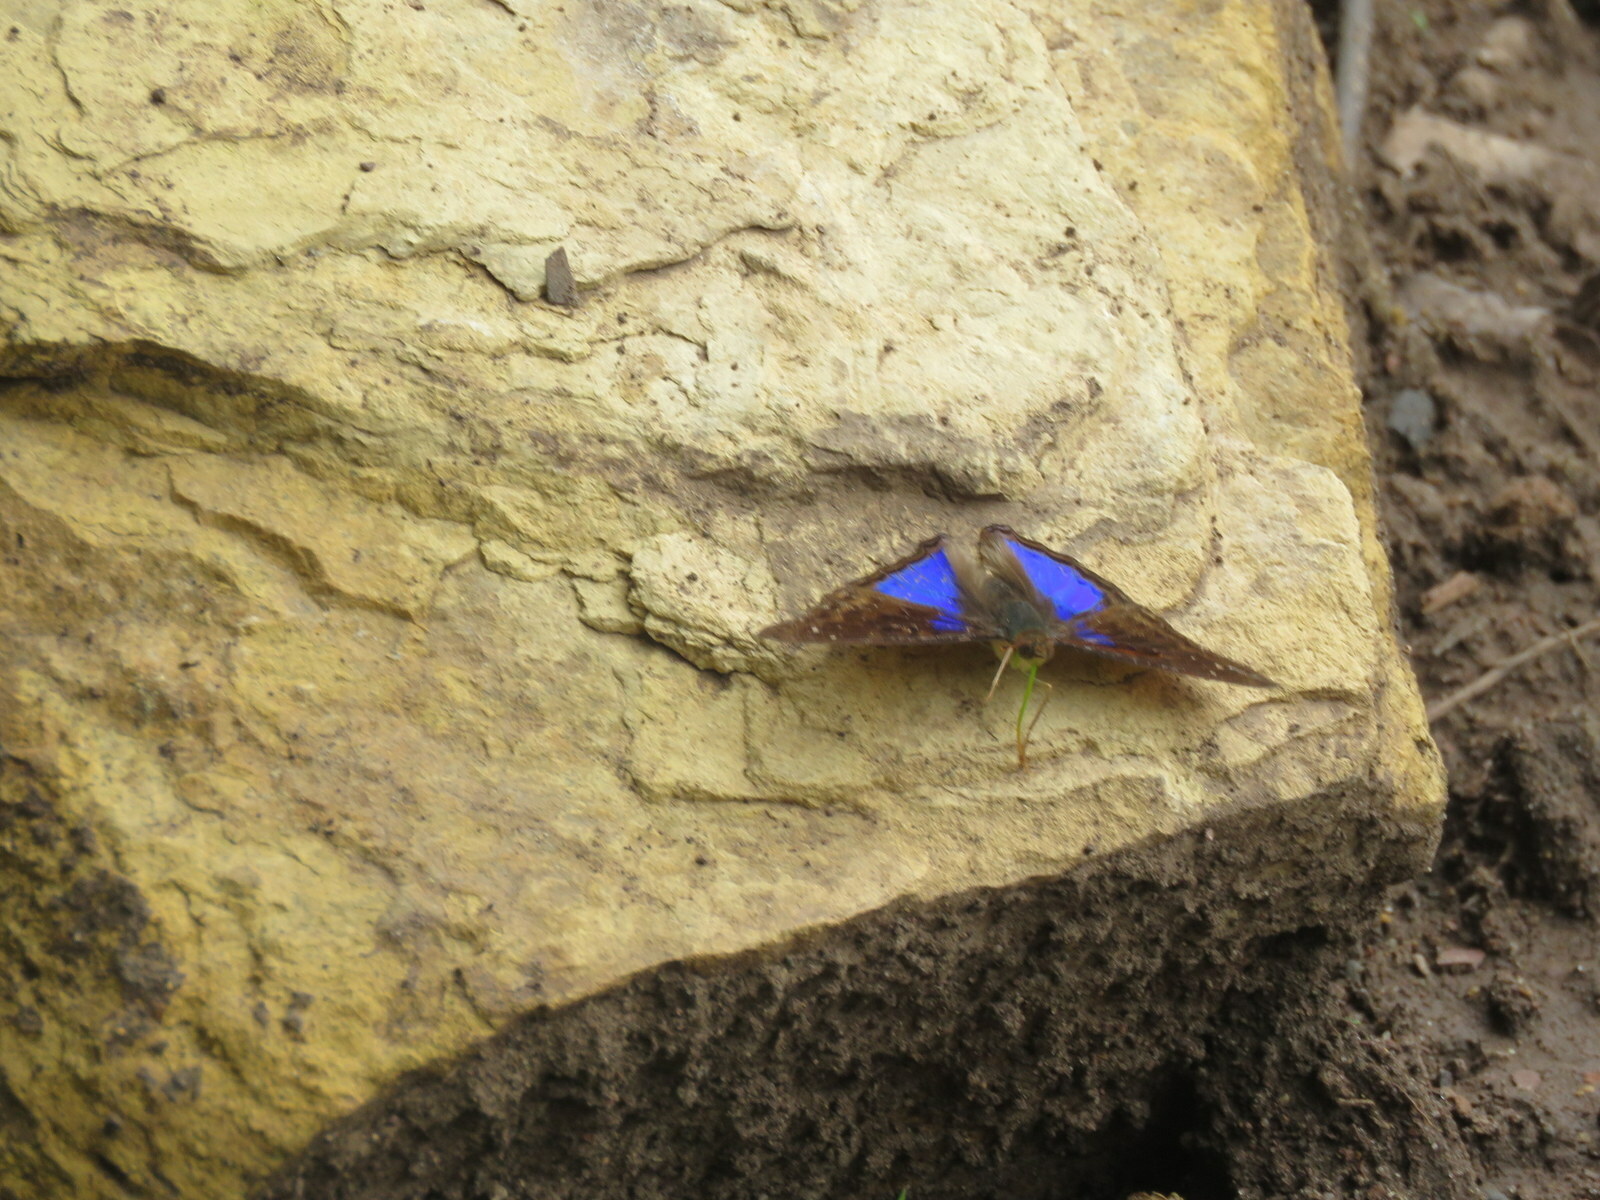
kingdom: Animalia
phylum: Arthropoda
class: Insecta
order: Lepidoptera
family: Nymphalidae
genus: Doxocopa
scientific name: Doxocopa cyane
